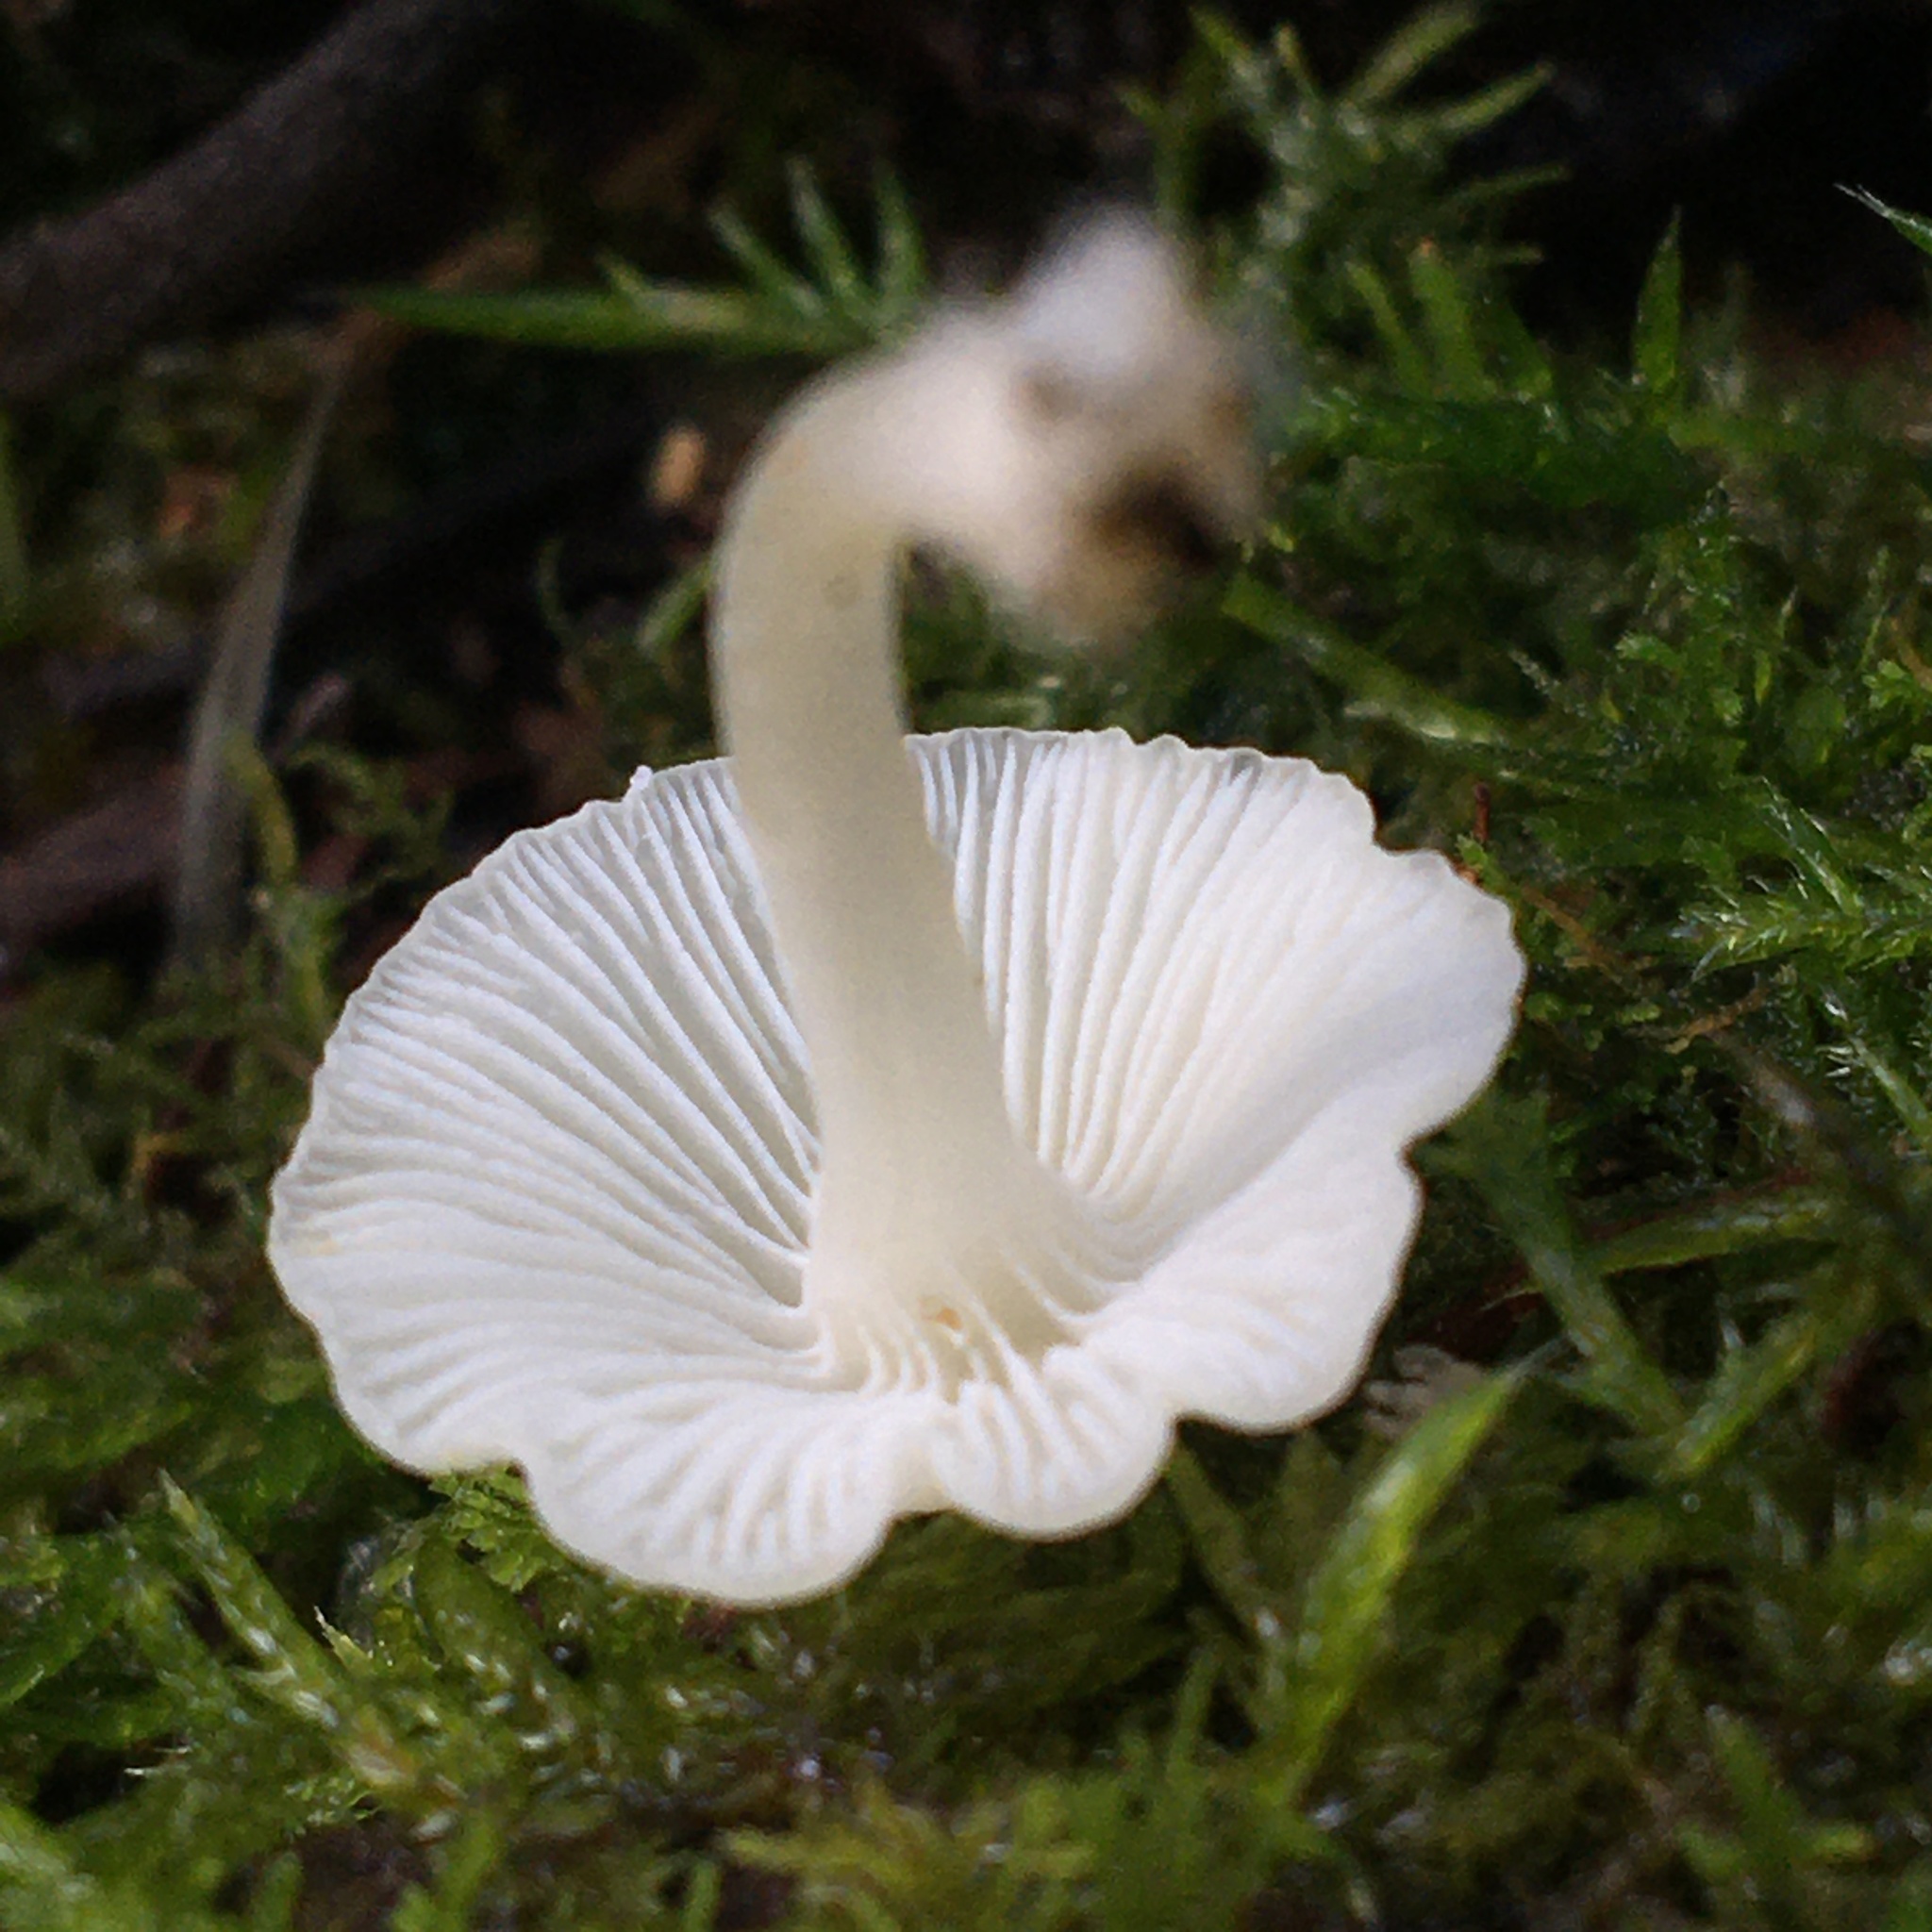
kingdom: Fungi
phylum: Basidiomycota
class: Agaricomycetes
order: Agaricales
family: Mycenaceae
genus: Hemimycena
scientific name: Hemimycena lactea
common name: Milky bonnet
